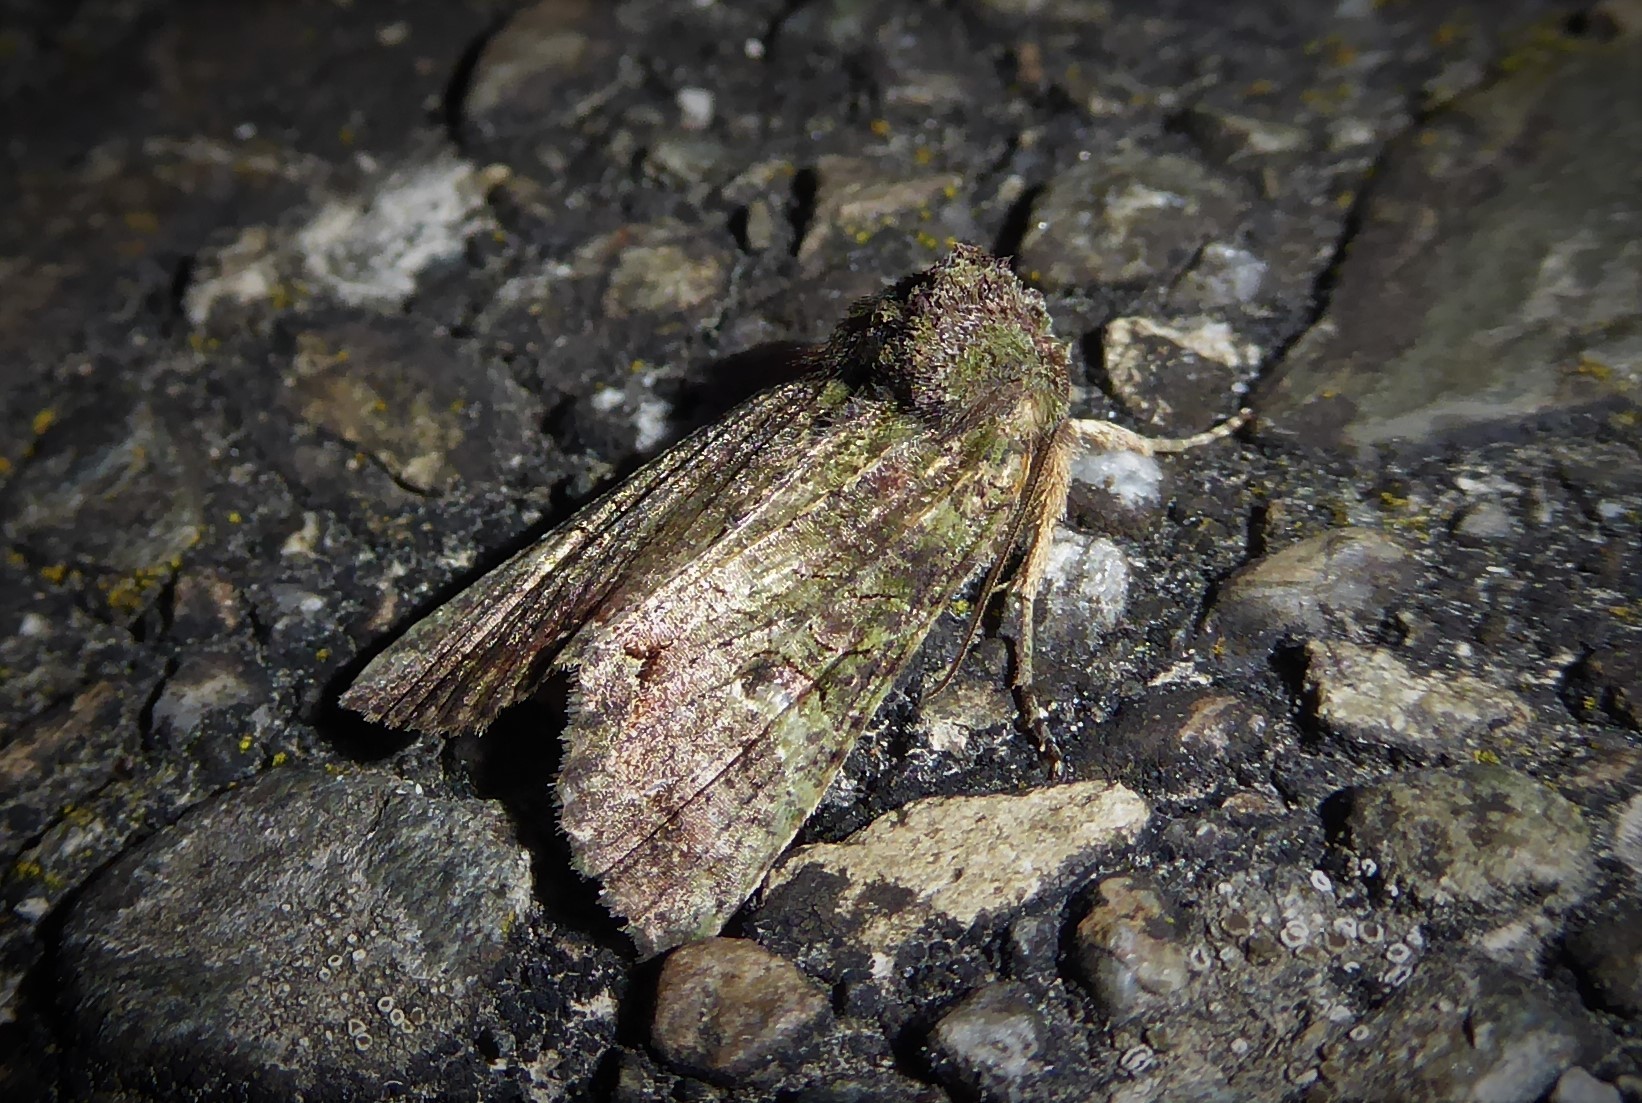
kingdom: Animalia
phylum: Arthropoda
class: Insecta
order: Lepidoptera
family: Noctuidae
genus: Meterana
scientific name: Meterana levis
